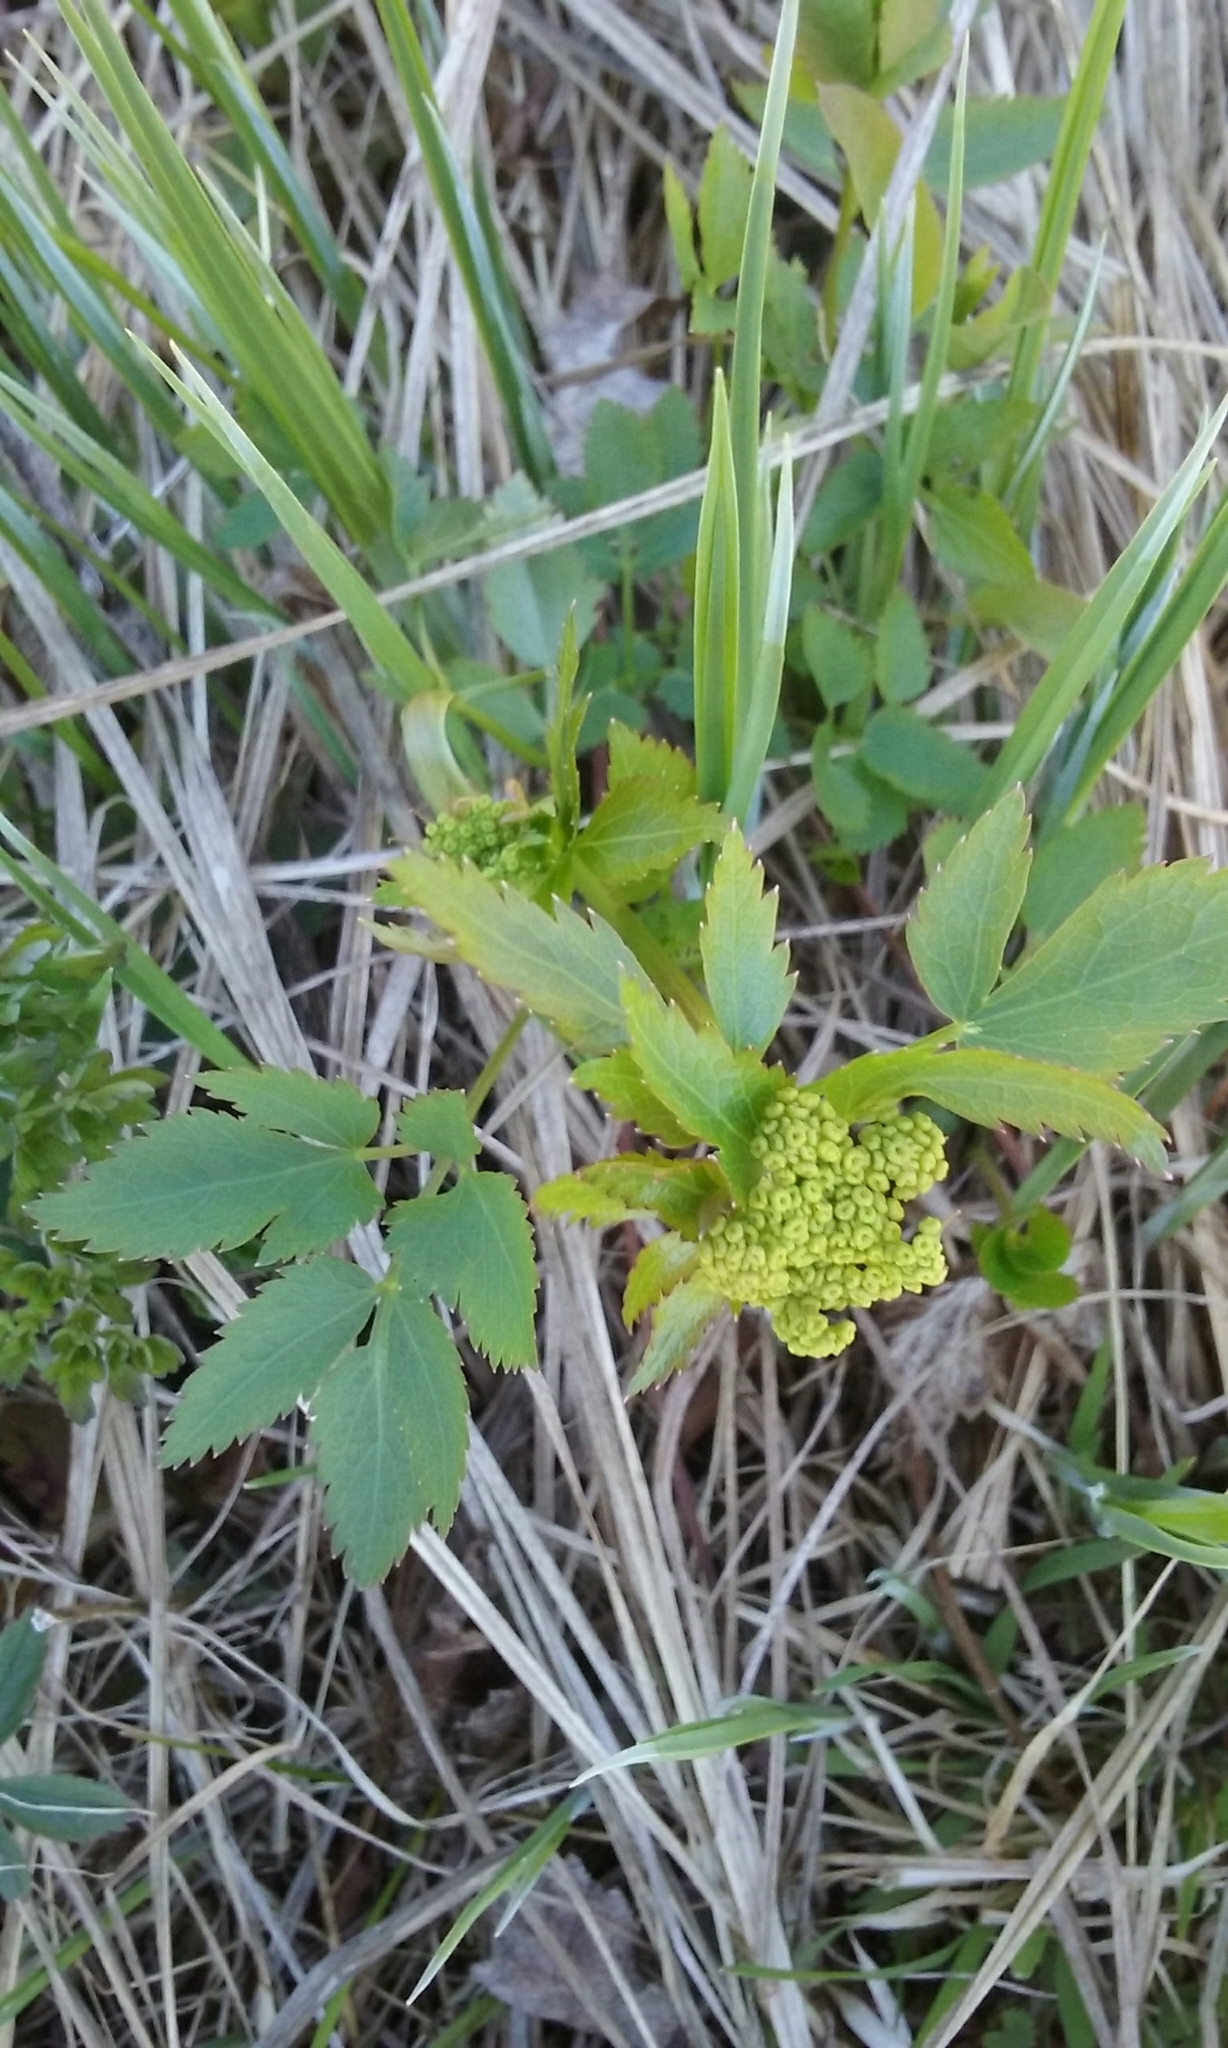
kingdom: Plantae
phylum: Tracheophyta
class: Magnoliopsida
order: Apiales
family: Apiaceae
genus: Zizia
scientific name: Zizia aurea
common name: Golden alexanders
